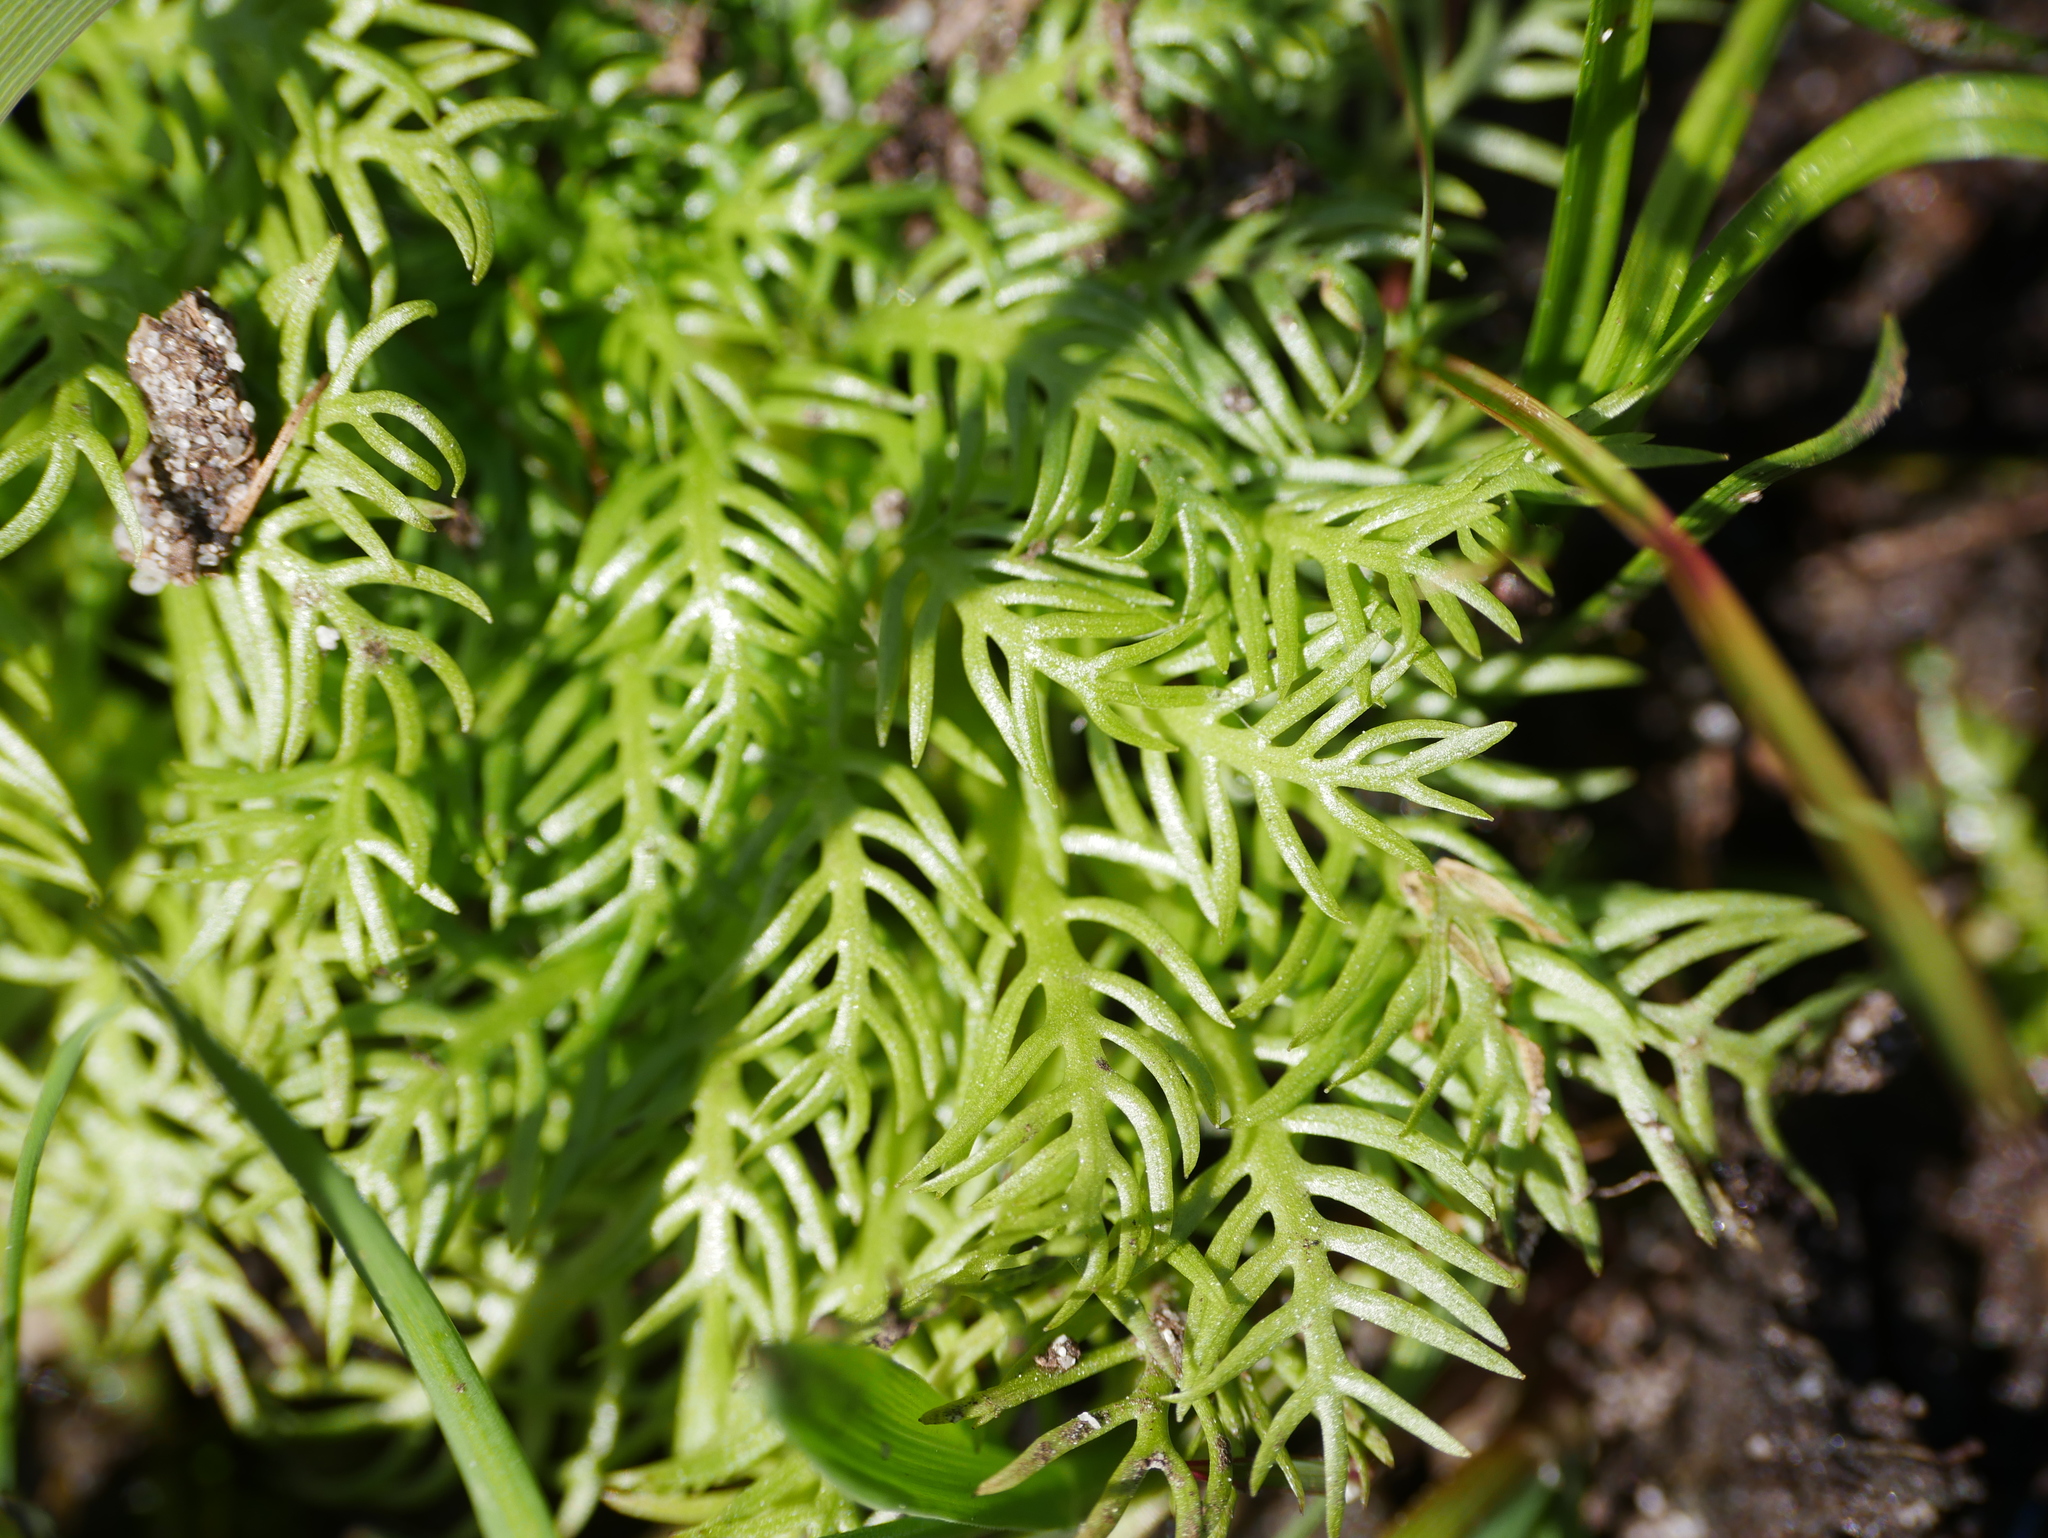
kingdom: Plantae
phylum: Tracheophyta
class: Magnoliopsida
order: Ericales
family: Primulaceae
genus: Hottonia
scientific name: Hottonia palustris
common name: Water-violet
